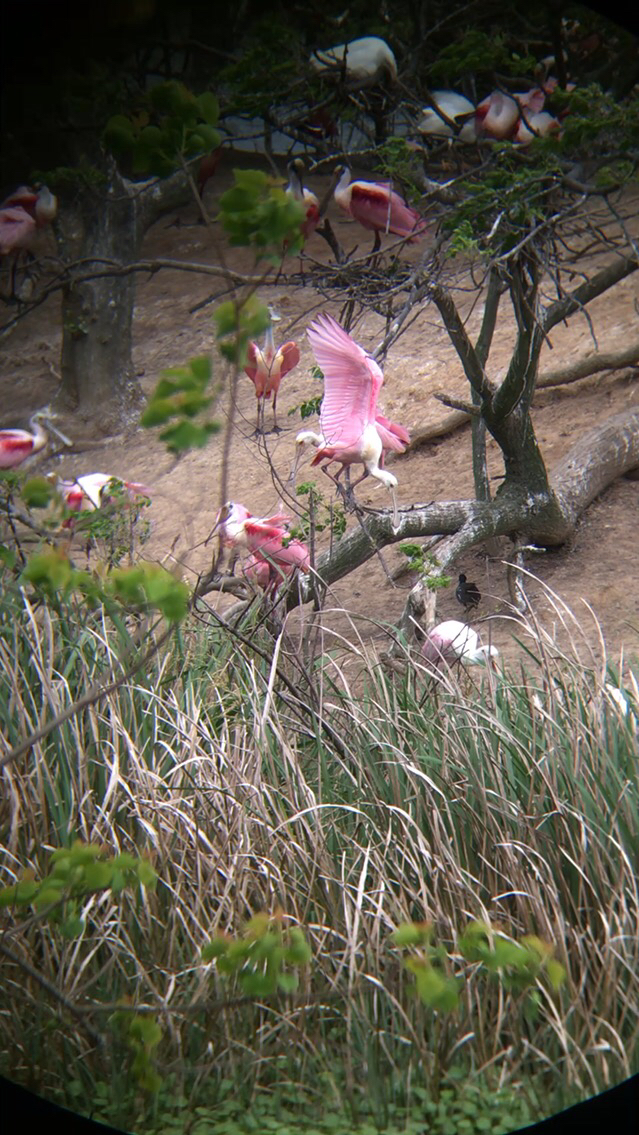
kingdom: Animalia
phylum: Chordata
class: Aves
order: Pelecaniformes
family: Threskiornithidae
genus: Platalea
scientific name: Platalea ajaja
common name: Roseate spoonbill
